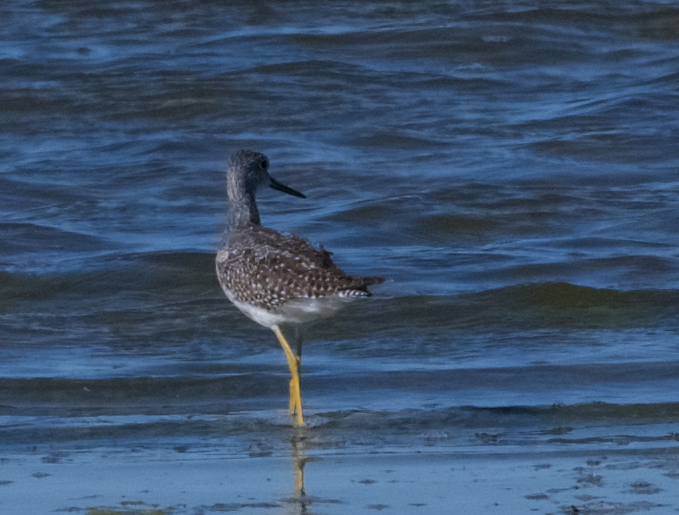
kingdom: Animalia
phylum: Chordata
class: Aves
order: Charadriiformes
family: Scolopacidae
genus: Tringa
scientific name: Tringa melanoleuca
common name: Greater yellowlegs
